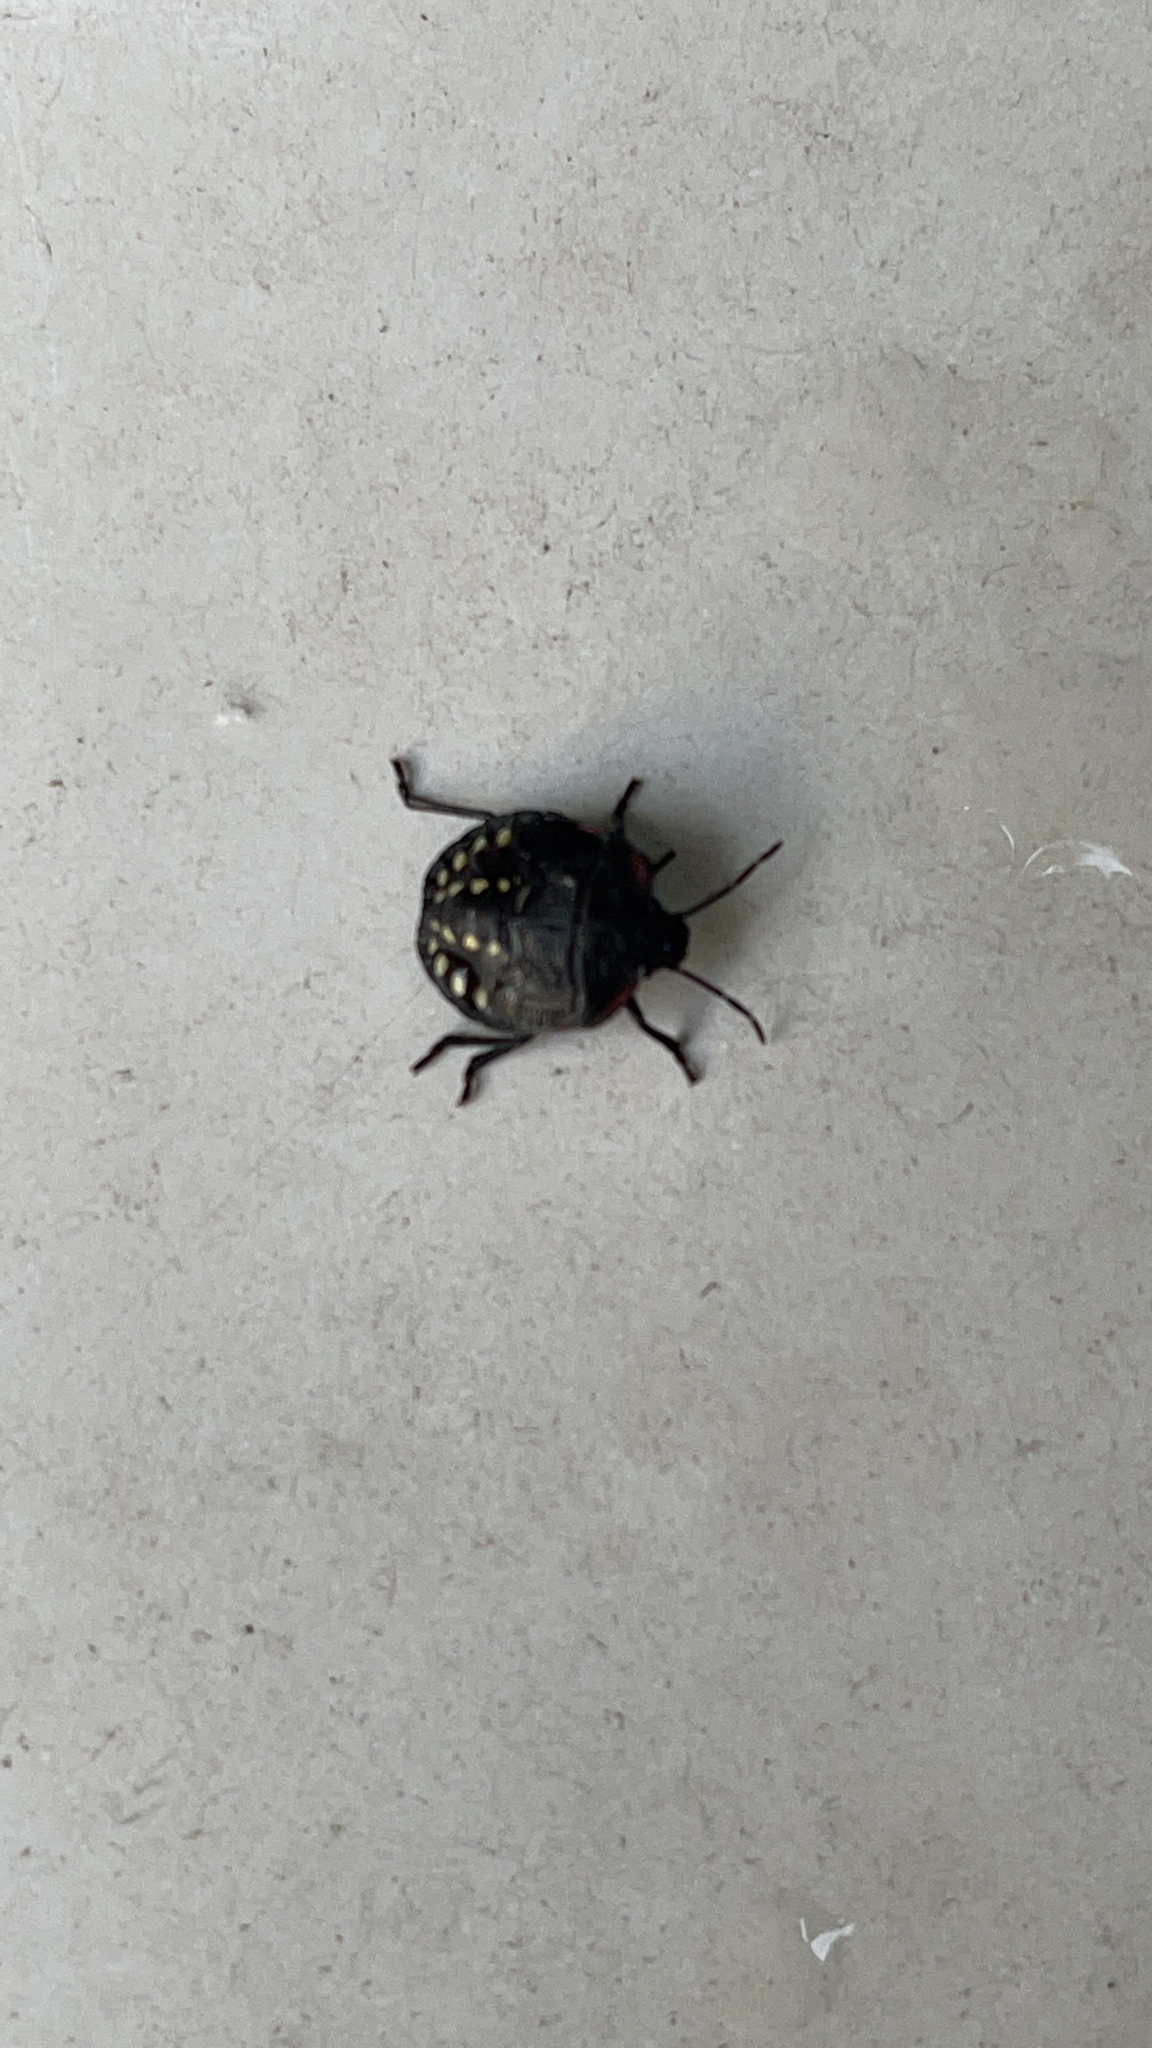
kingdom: Animalia
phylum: Arthropoda
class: Insecta
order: Hemiptera
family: Pentatomidae
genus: Nezara
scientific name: Nezara viridula
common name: Southern green stink bug
